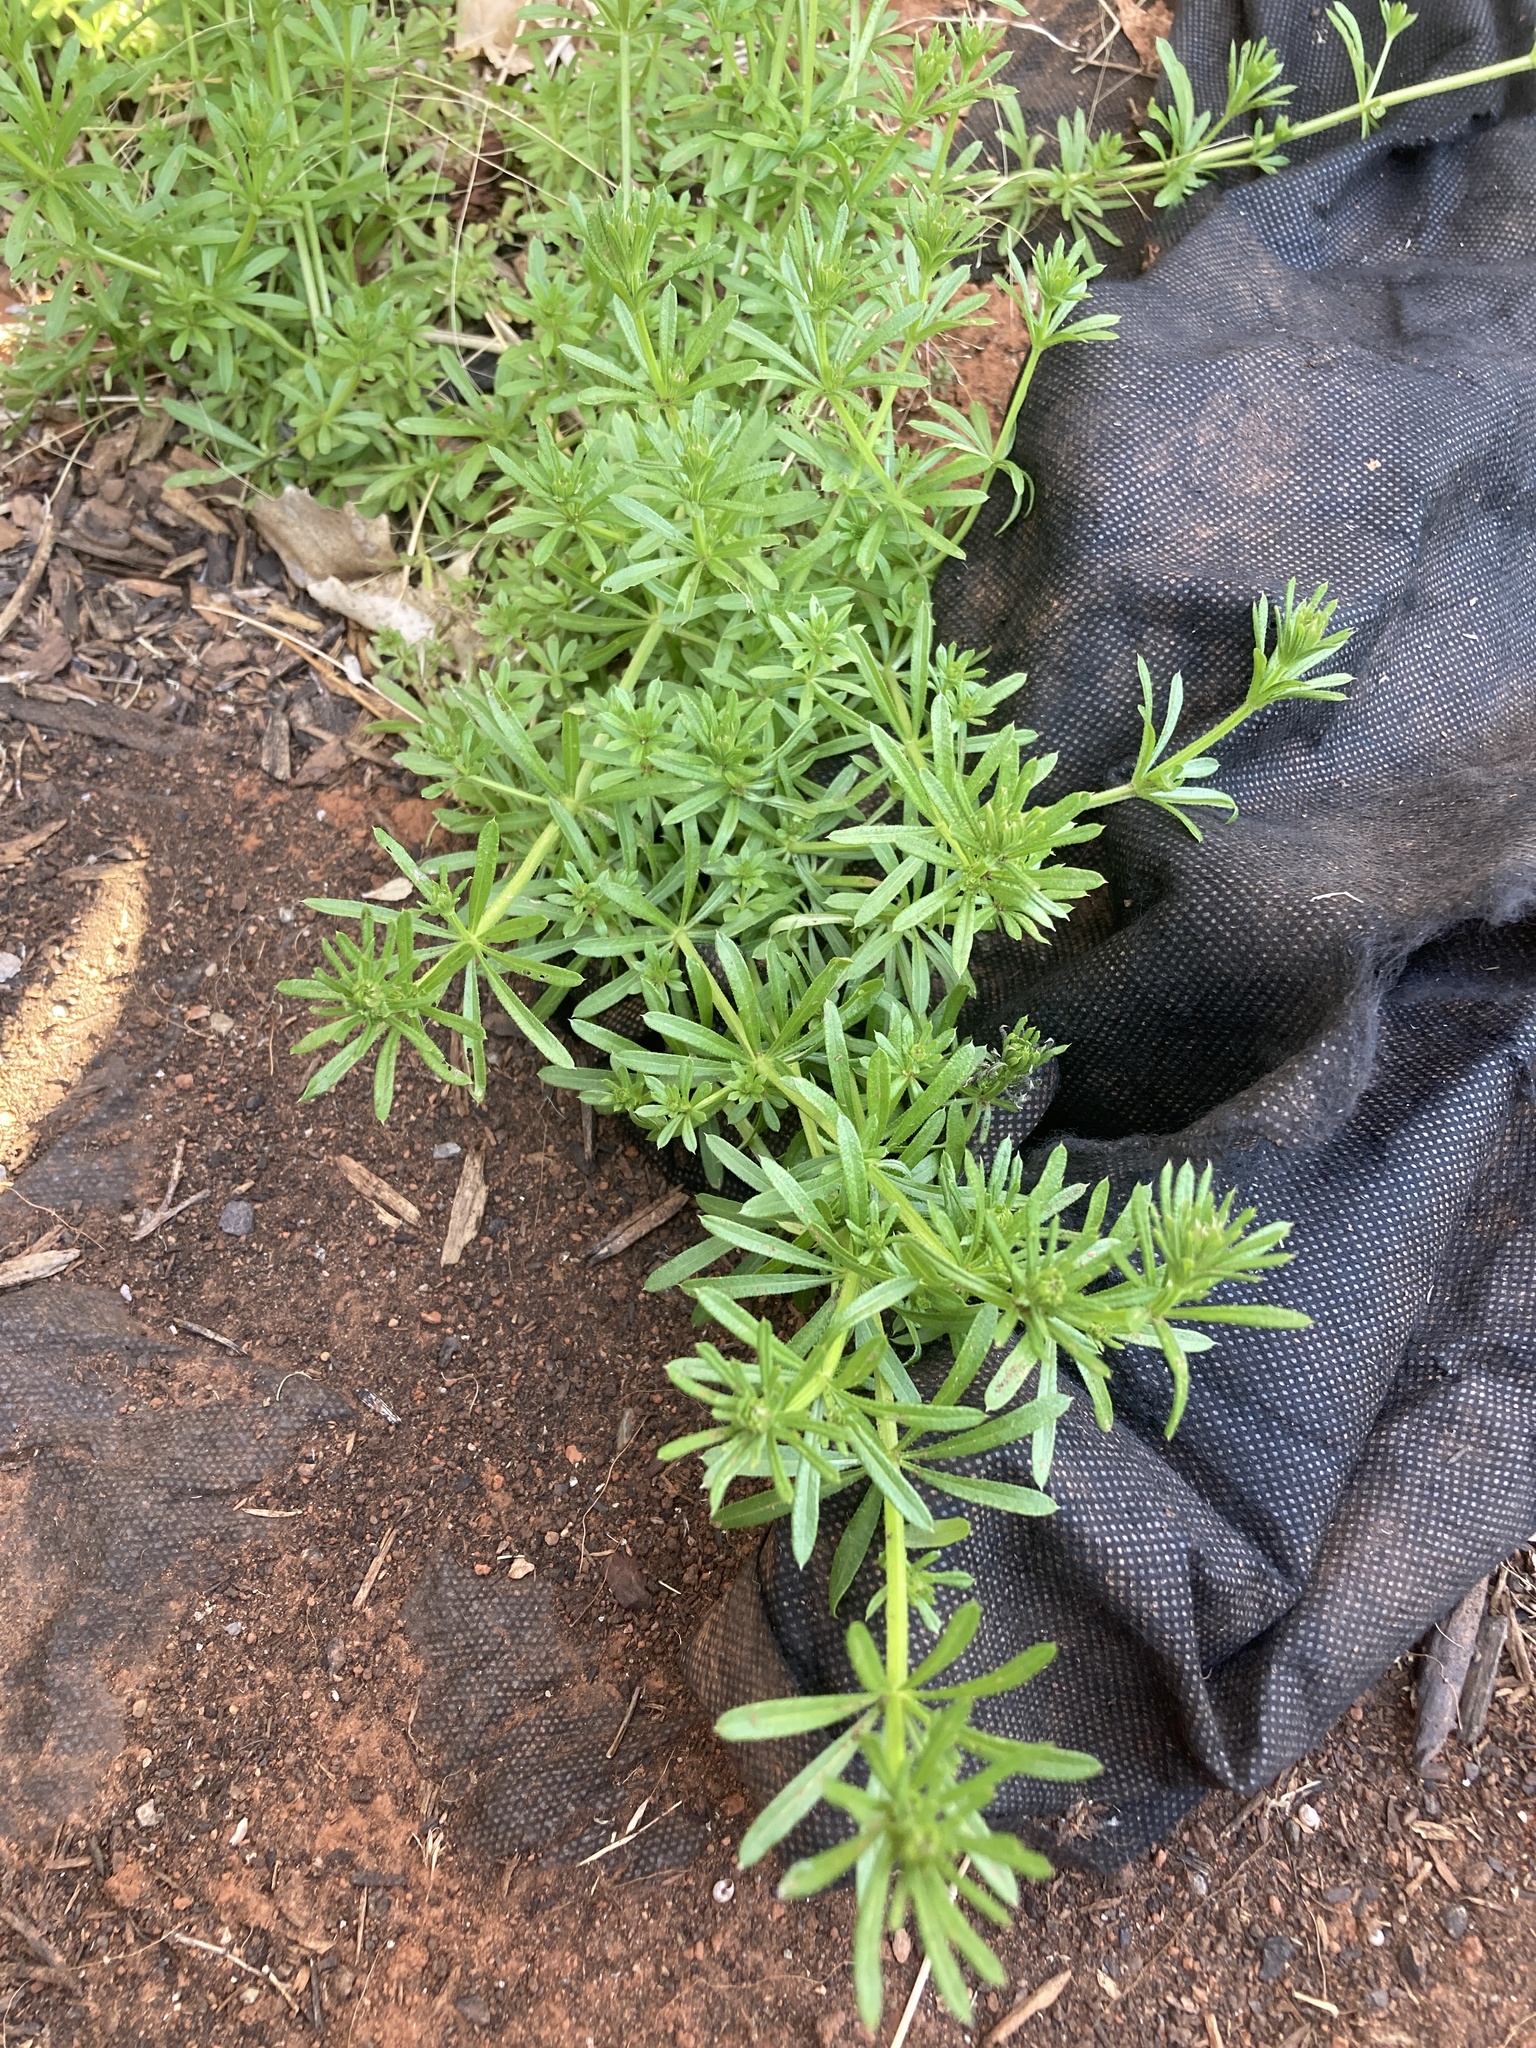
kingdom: Plantae
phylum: Tracheophyta
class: Magnoliopsida
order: Gentianales
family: Rubiaceae
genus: Galium
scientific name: Galium aparine
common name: Cleavers
